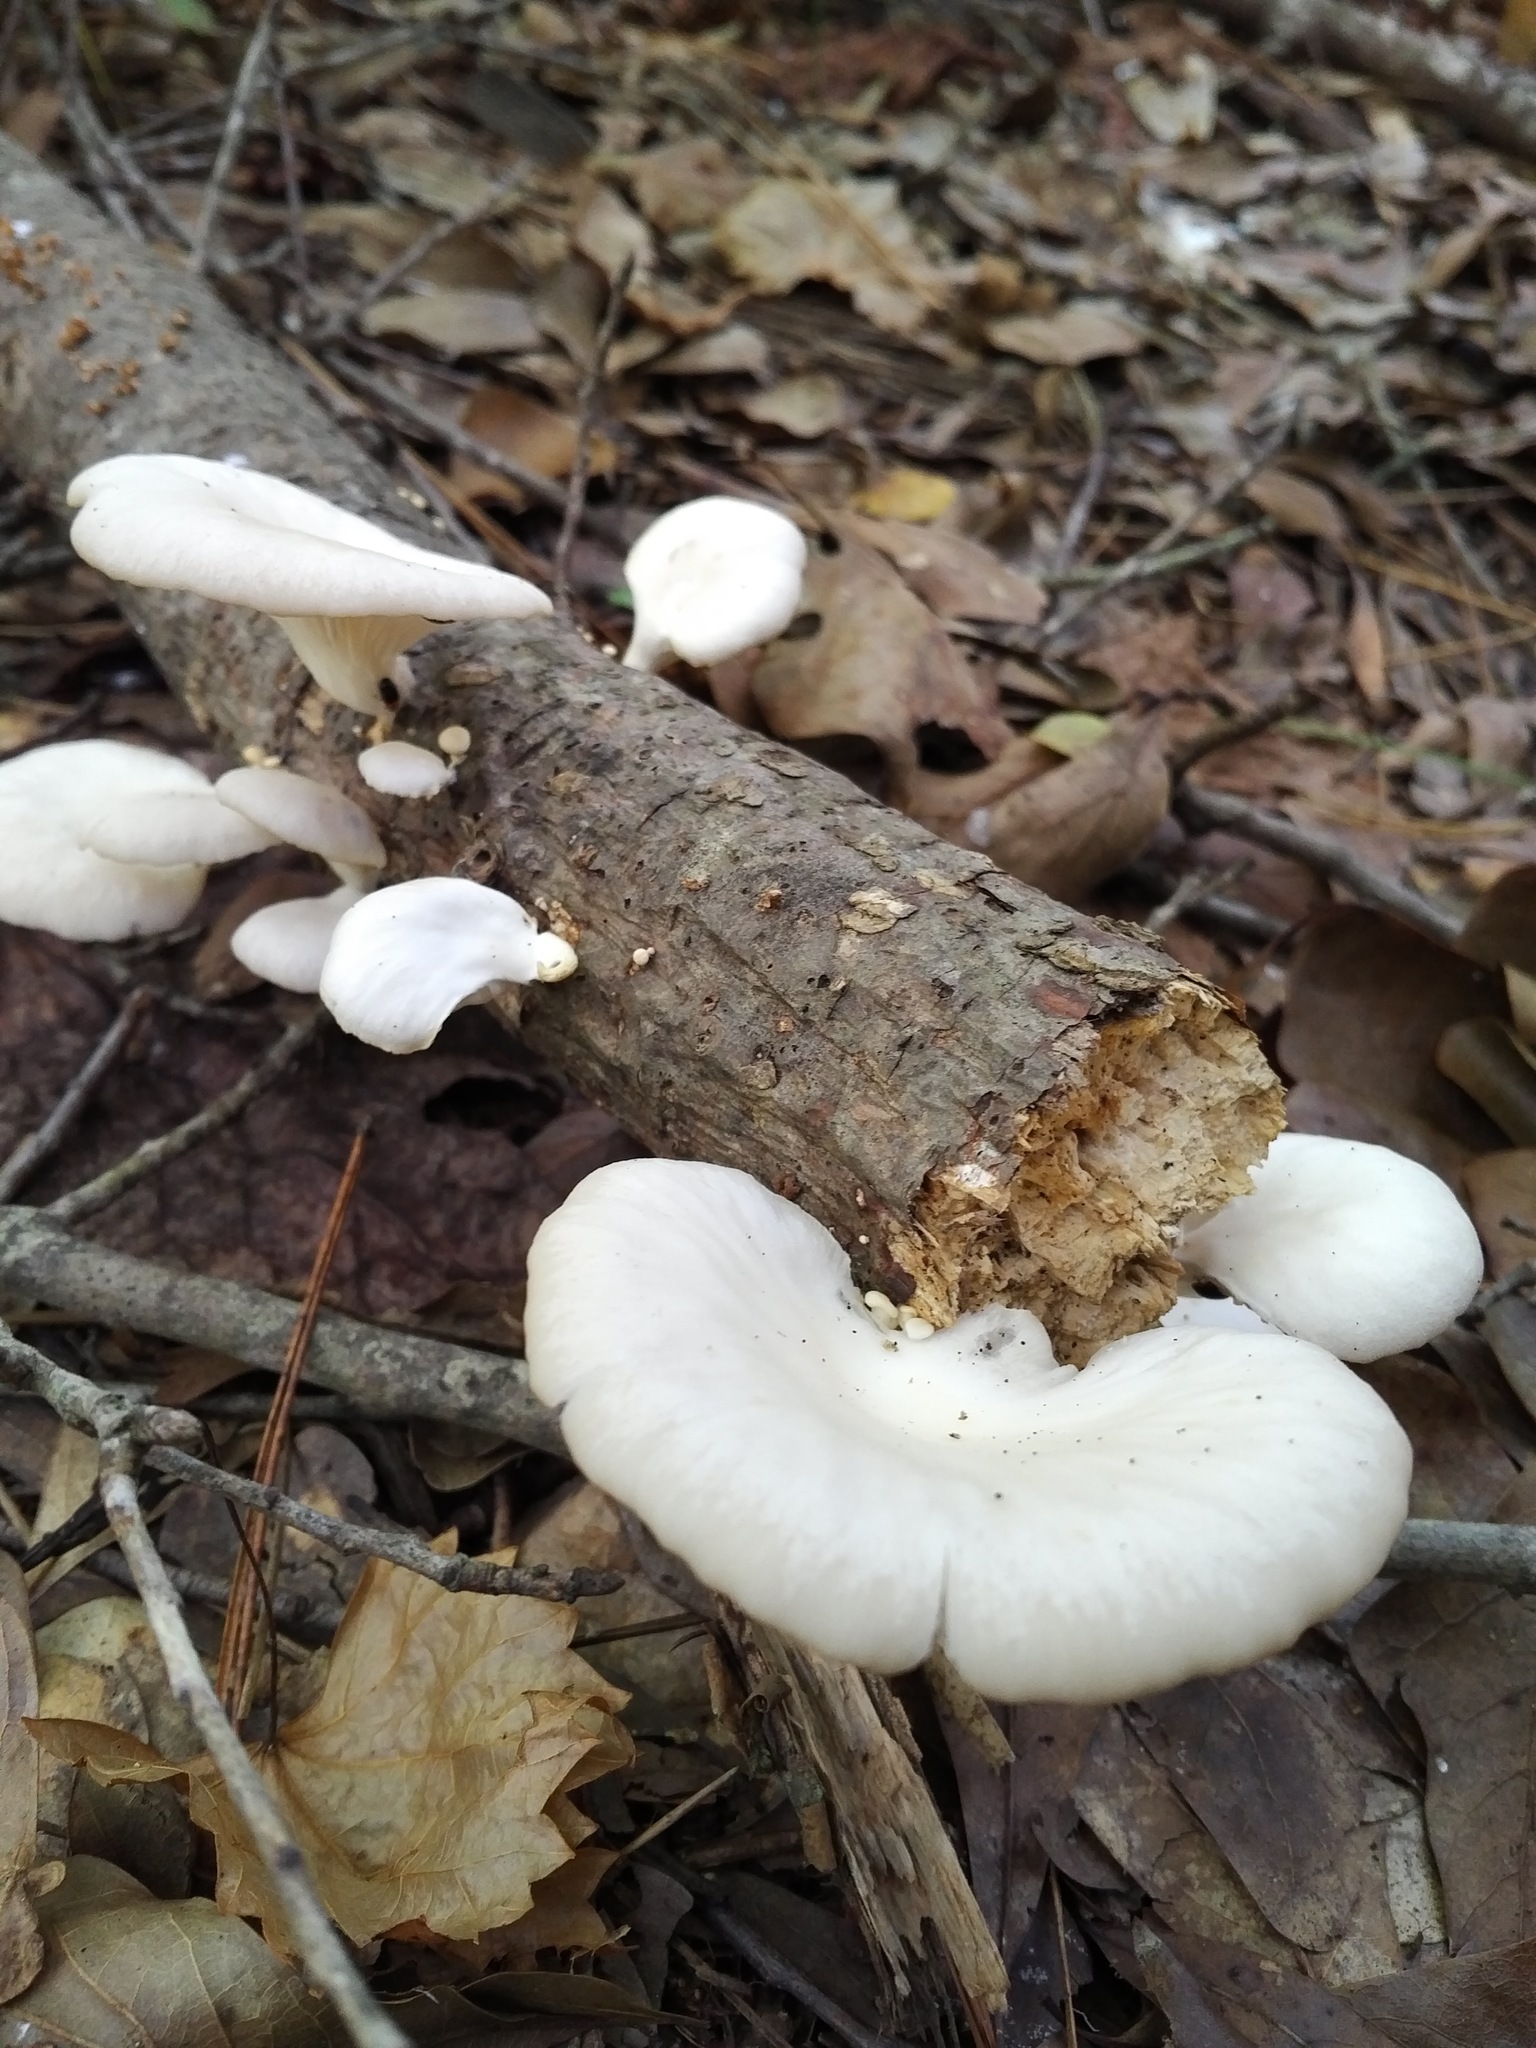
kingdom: Fungi
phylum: Basidiomycota
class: Agaricomycetes
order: Agaricales
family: Pleurotaceae
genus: Pleurotus
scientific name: Pleurotus pulmonarius
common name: Pale oyster
